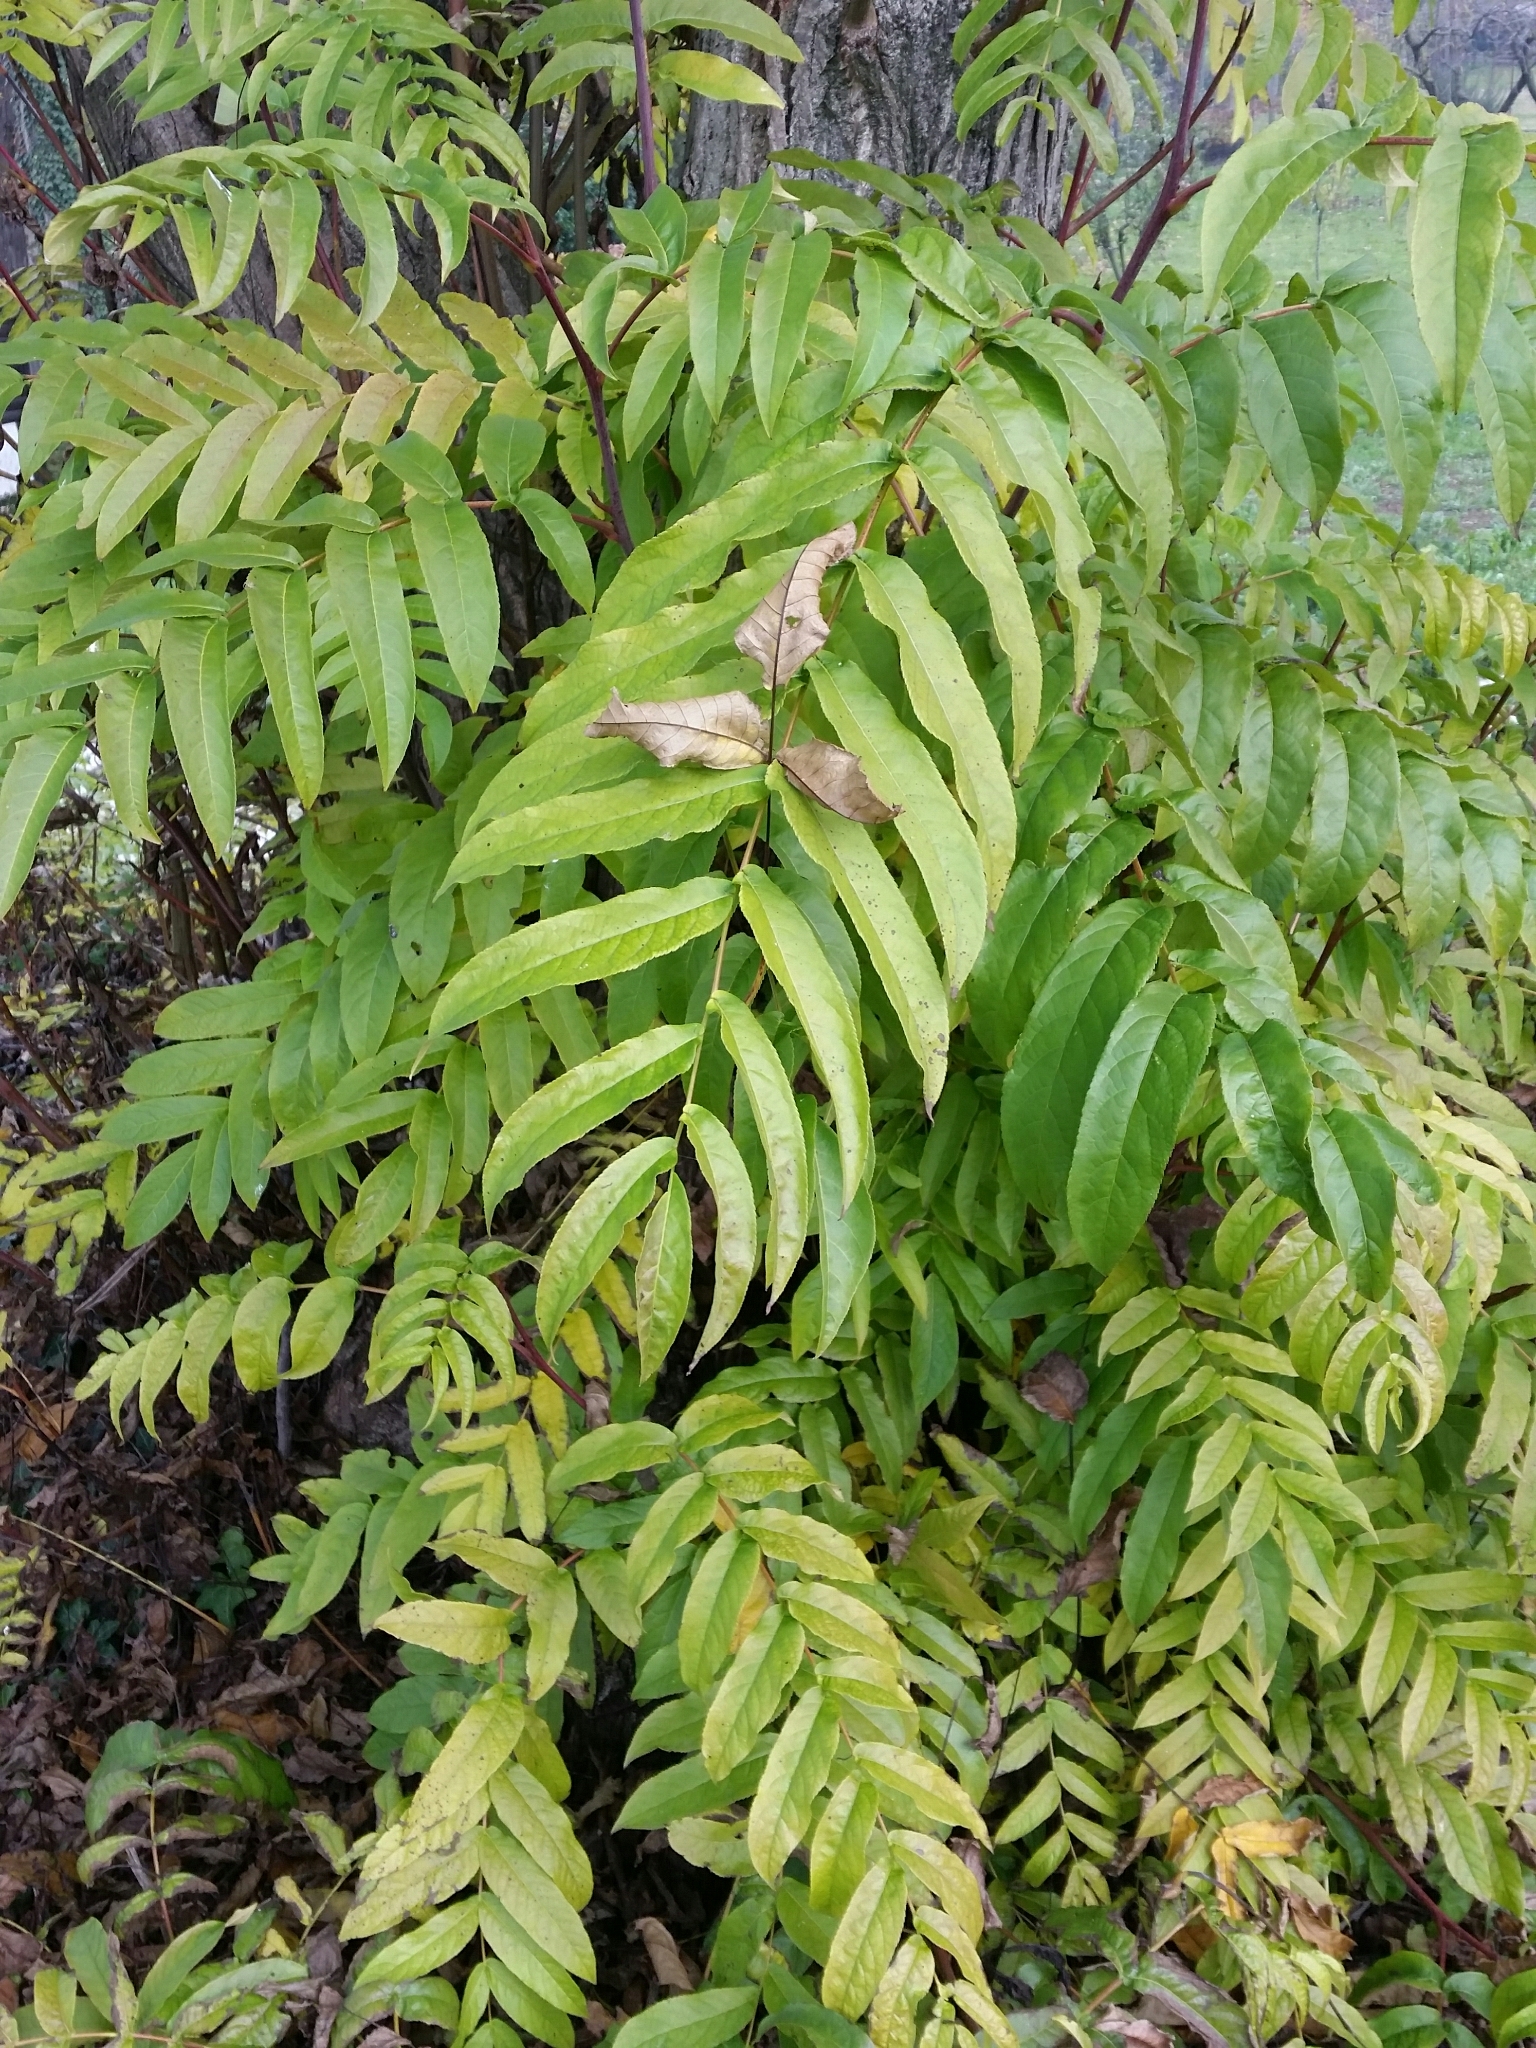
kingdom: Plantae
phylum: Tracheophyta
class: Magnoliopsida
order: Sapindales
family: Simaroubaceae
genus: Ailanthus
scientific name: Ailanthus altissima
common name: Tree-of-heaven
